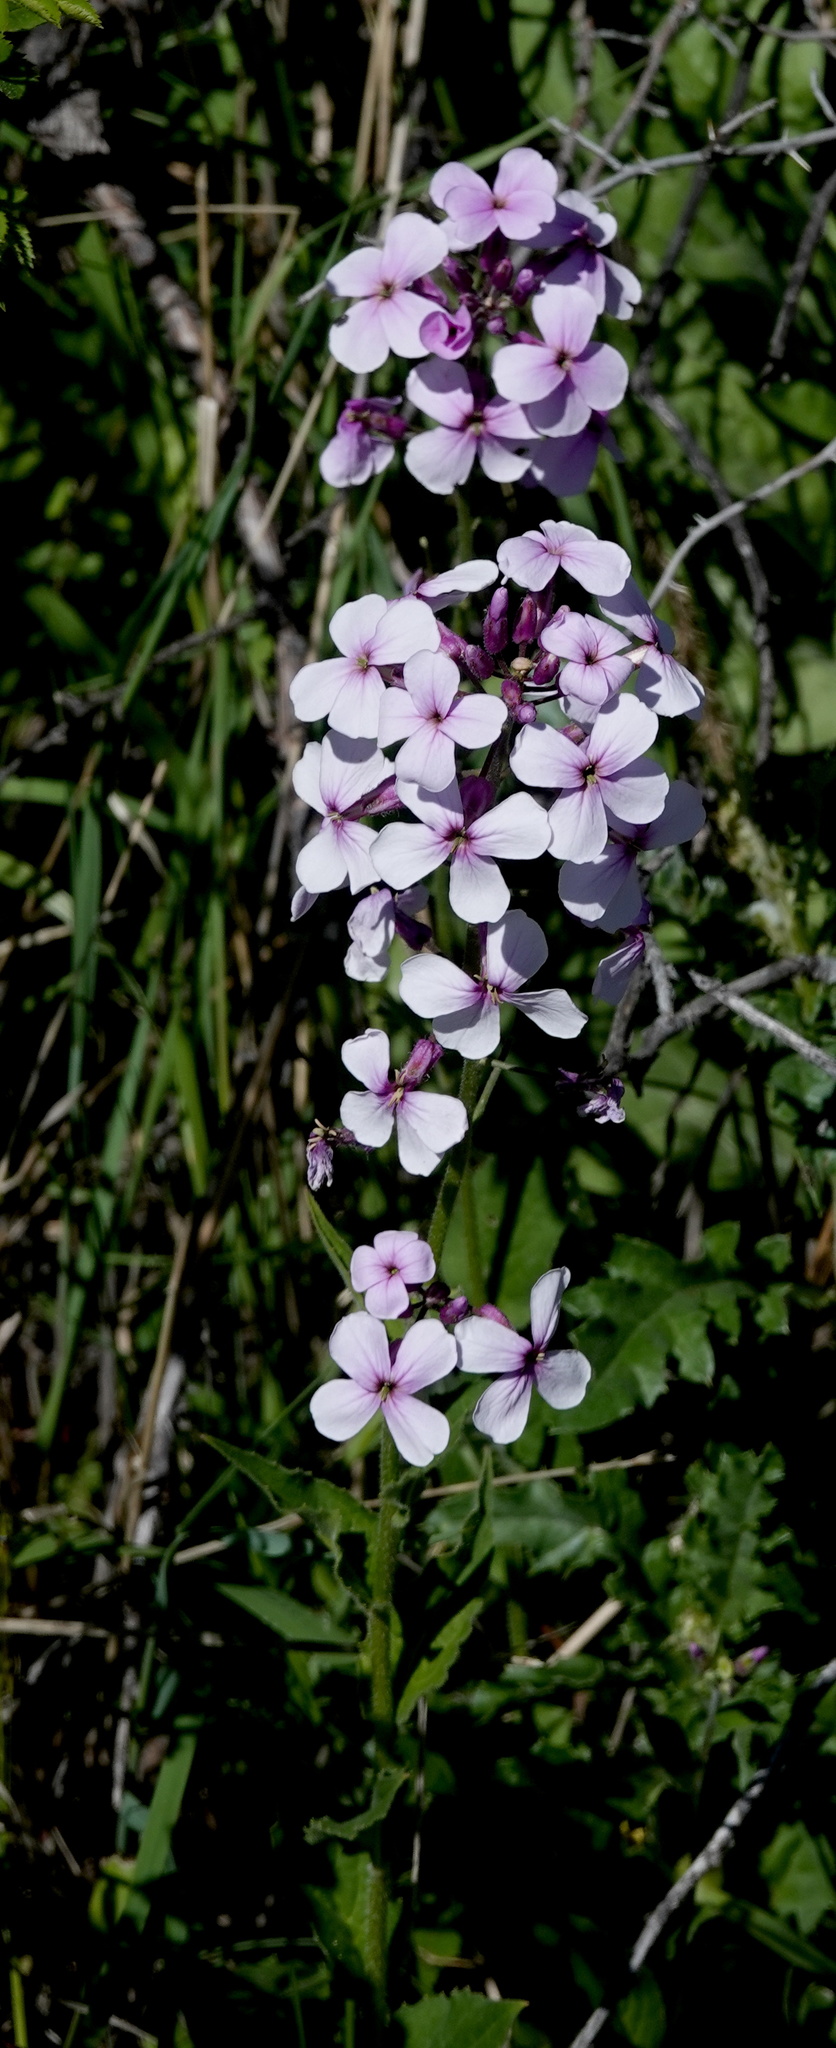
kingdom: Plantae
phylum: Tracheophyta
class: Magnoliopsida
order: Brassicales
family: Brassicaceae
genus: Hesperis
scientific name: Hesperis matronalis
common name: Dame's-violet
